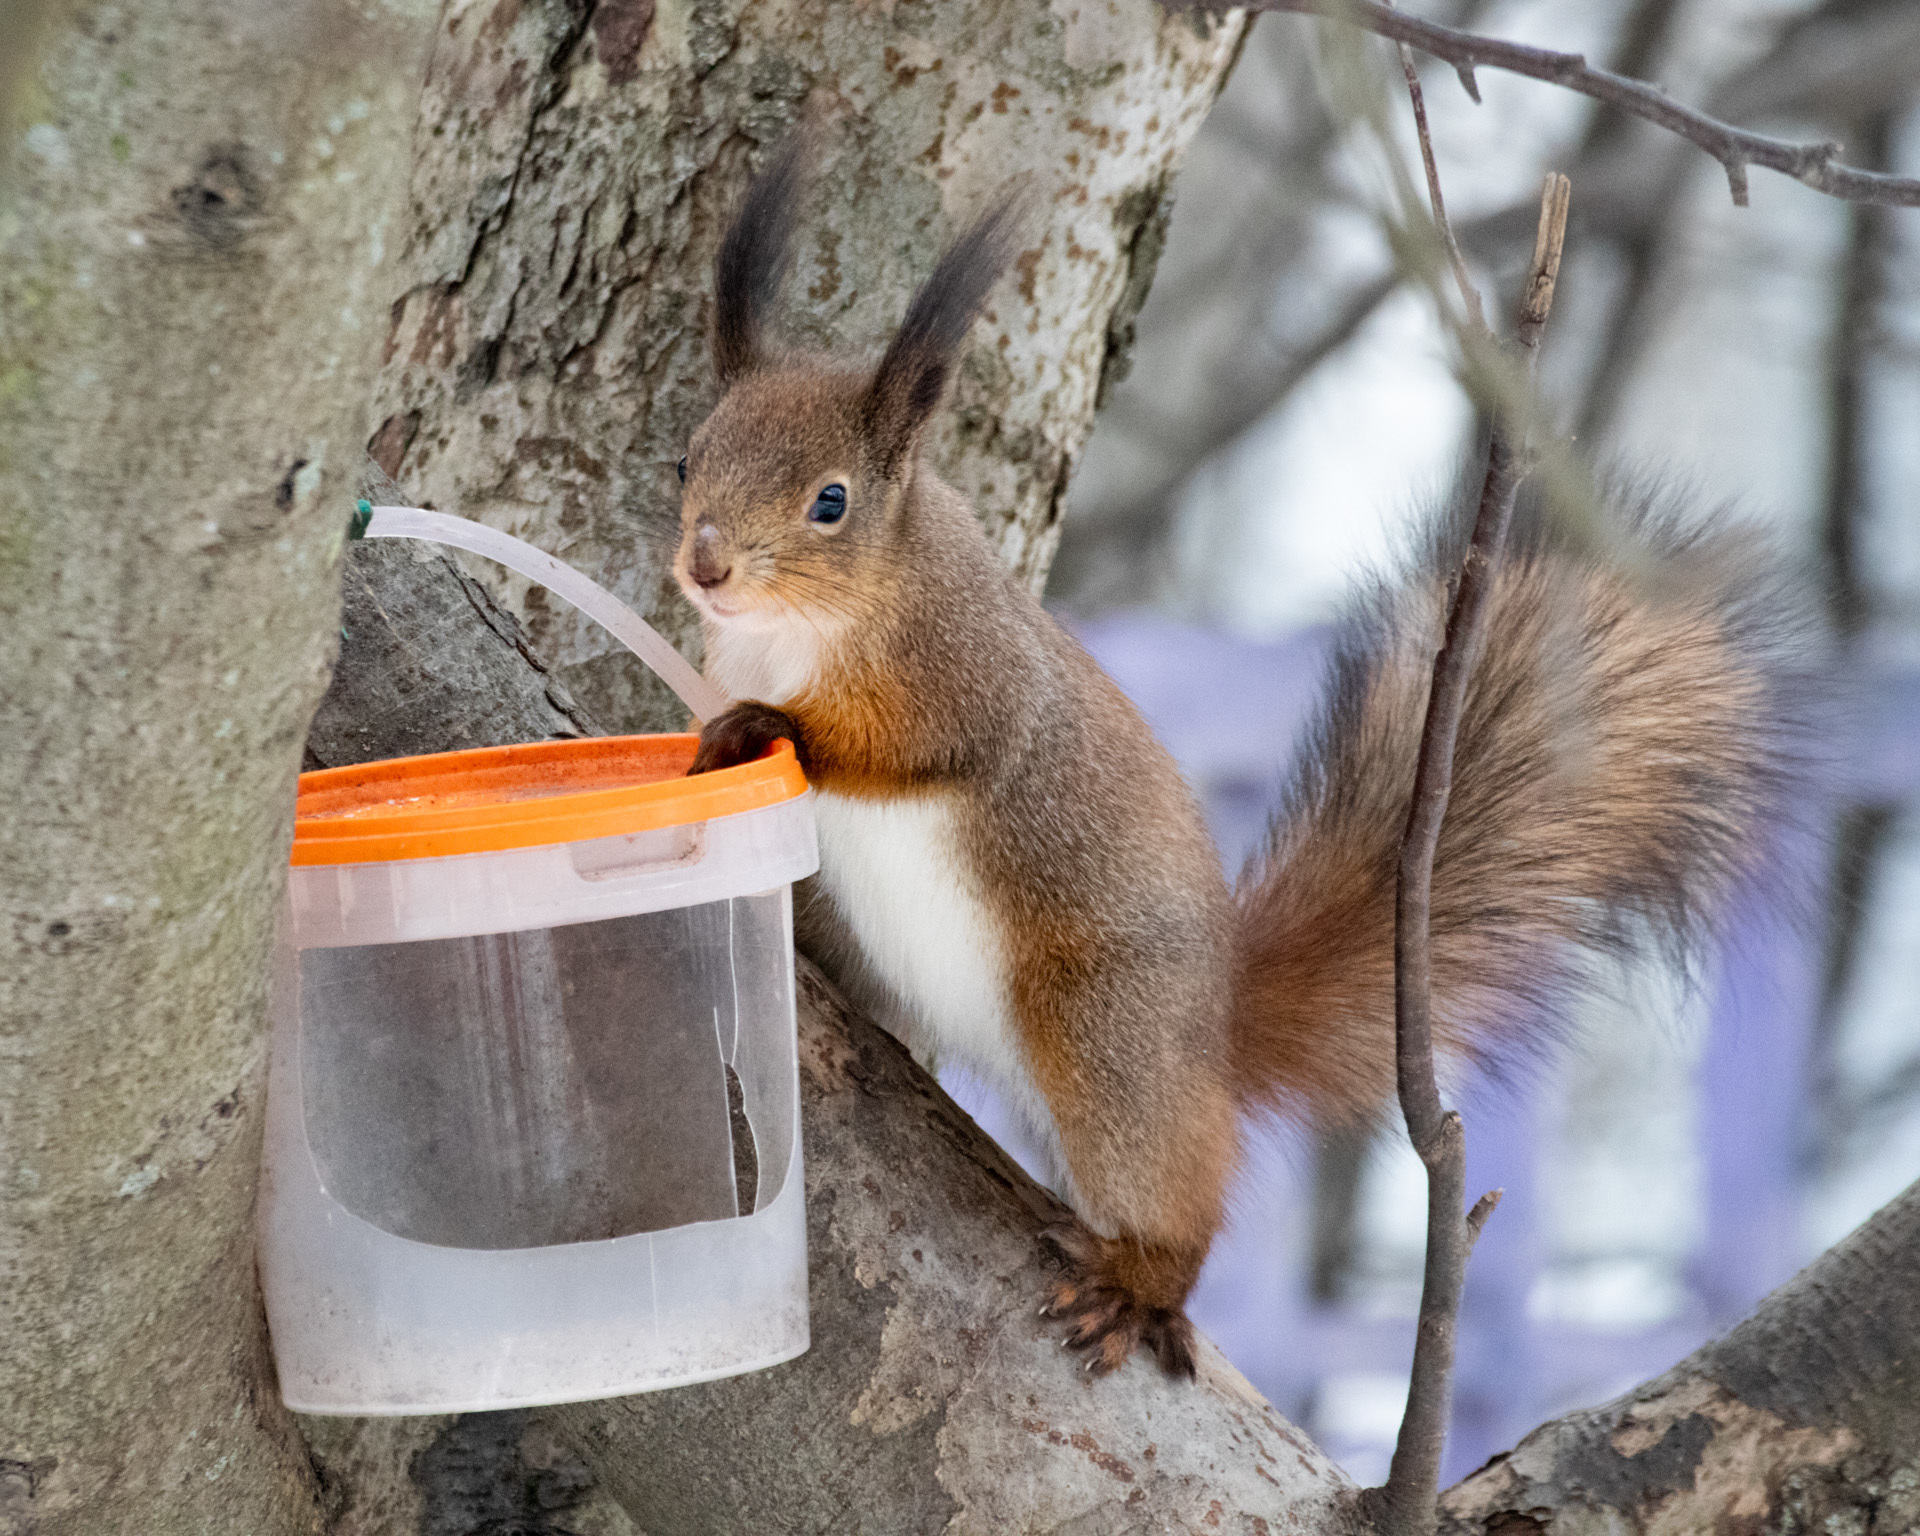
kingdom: Animalia
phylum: Chordata
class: Mammalia
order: Rodentia
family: Sciuridae
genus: Sciurus
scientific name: Sciurus vulgaris
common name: Eurasian red squirrel
